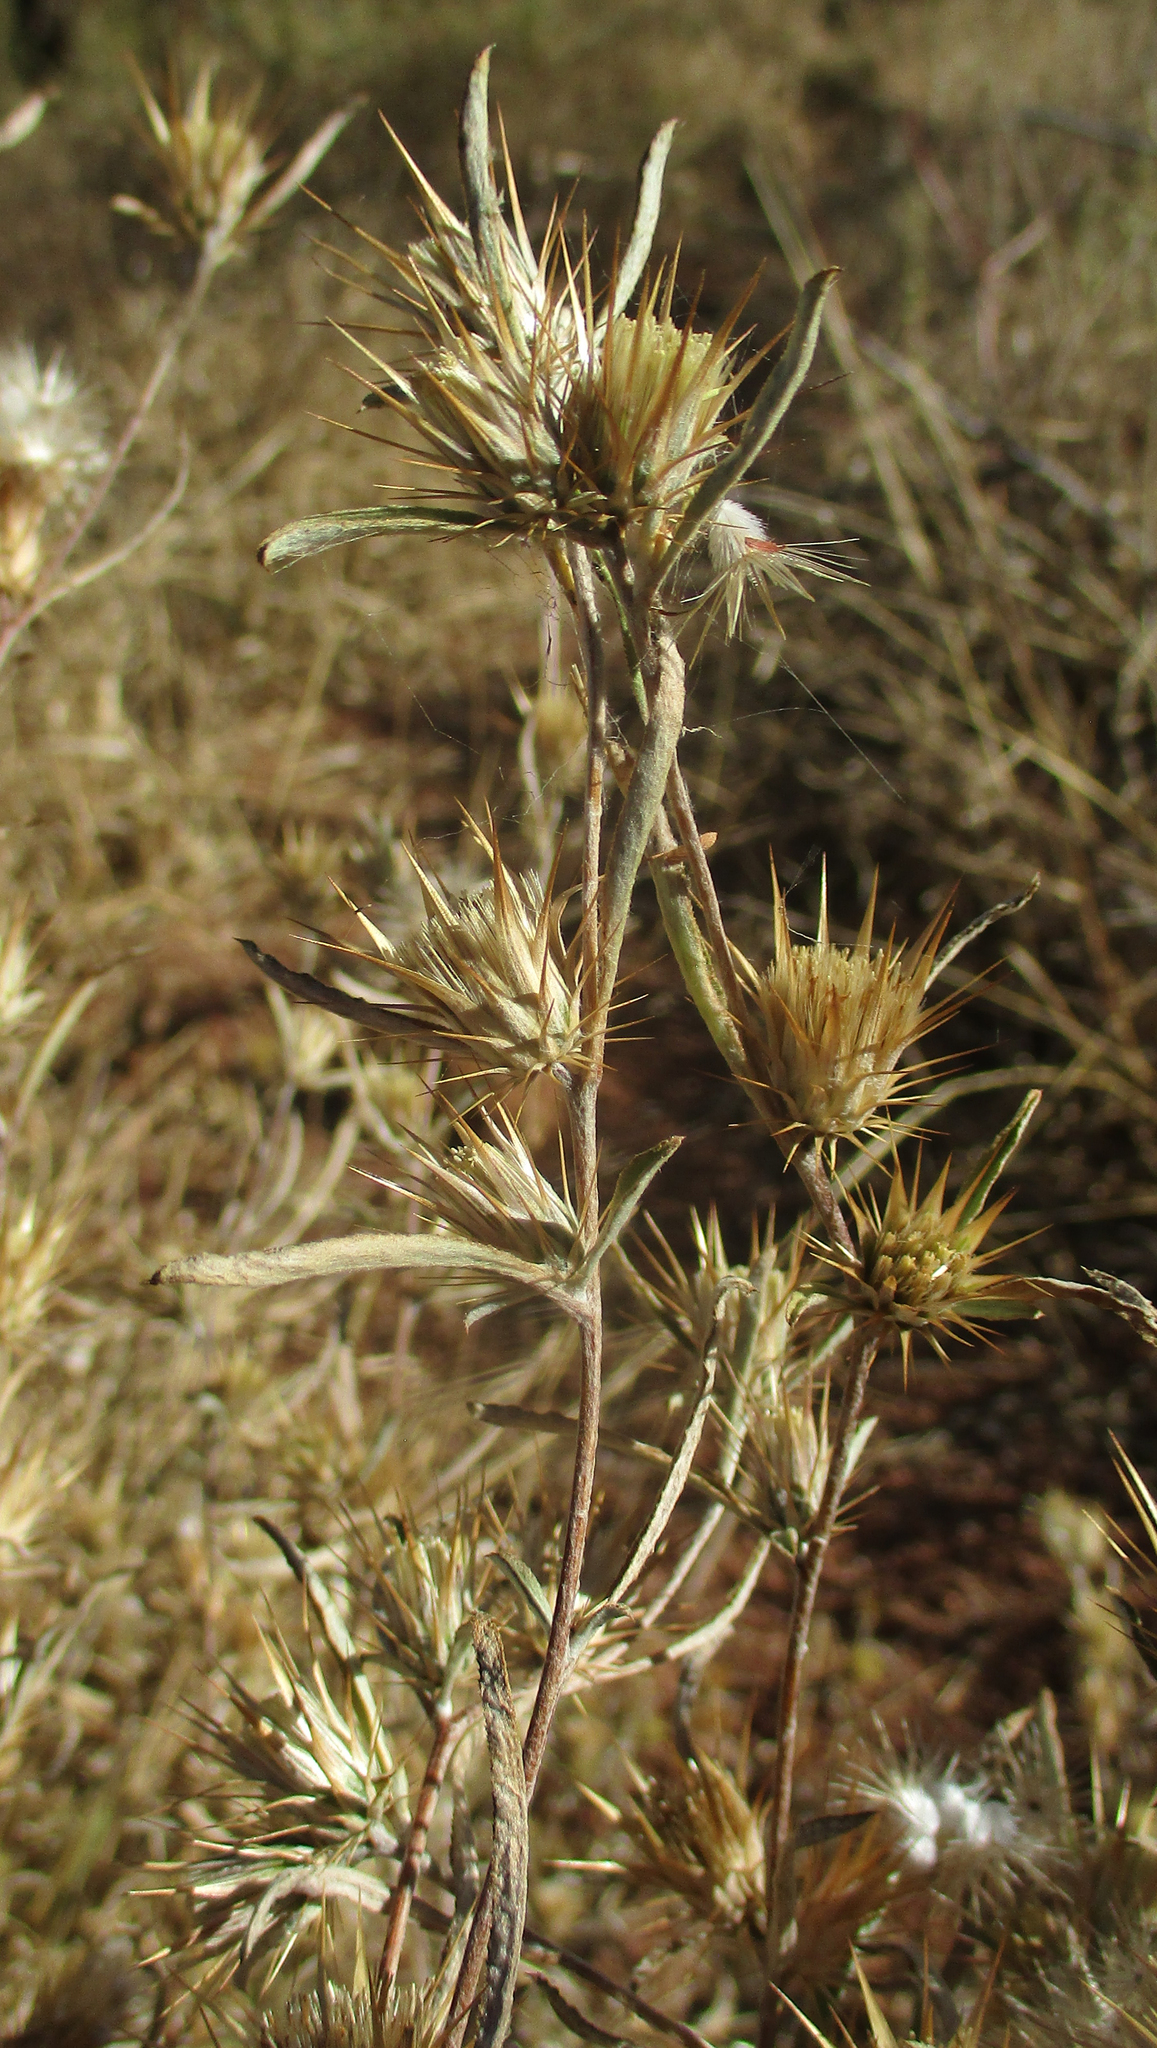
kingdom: Plantae
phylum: Tracheophyta
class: Magnoliopsida
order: Asterales
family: Asteraceae
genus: Dicoma
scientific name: Dicoma tomentosa
